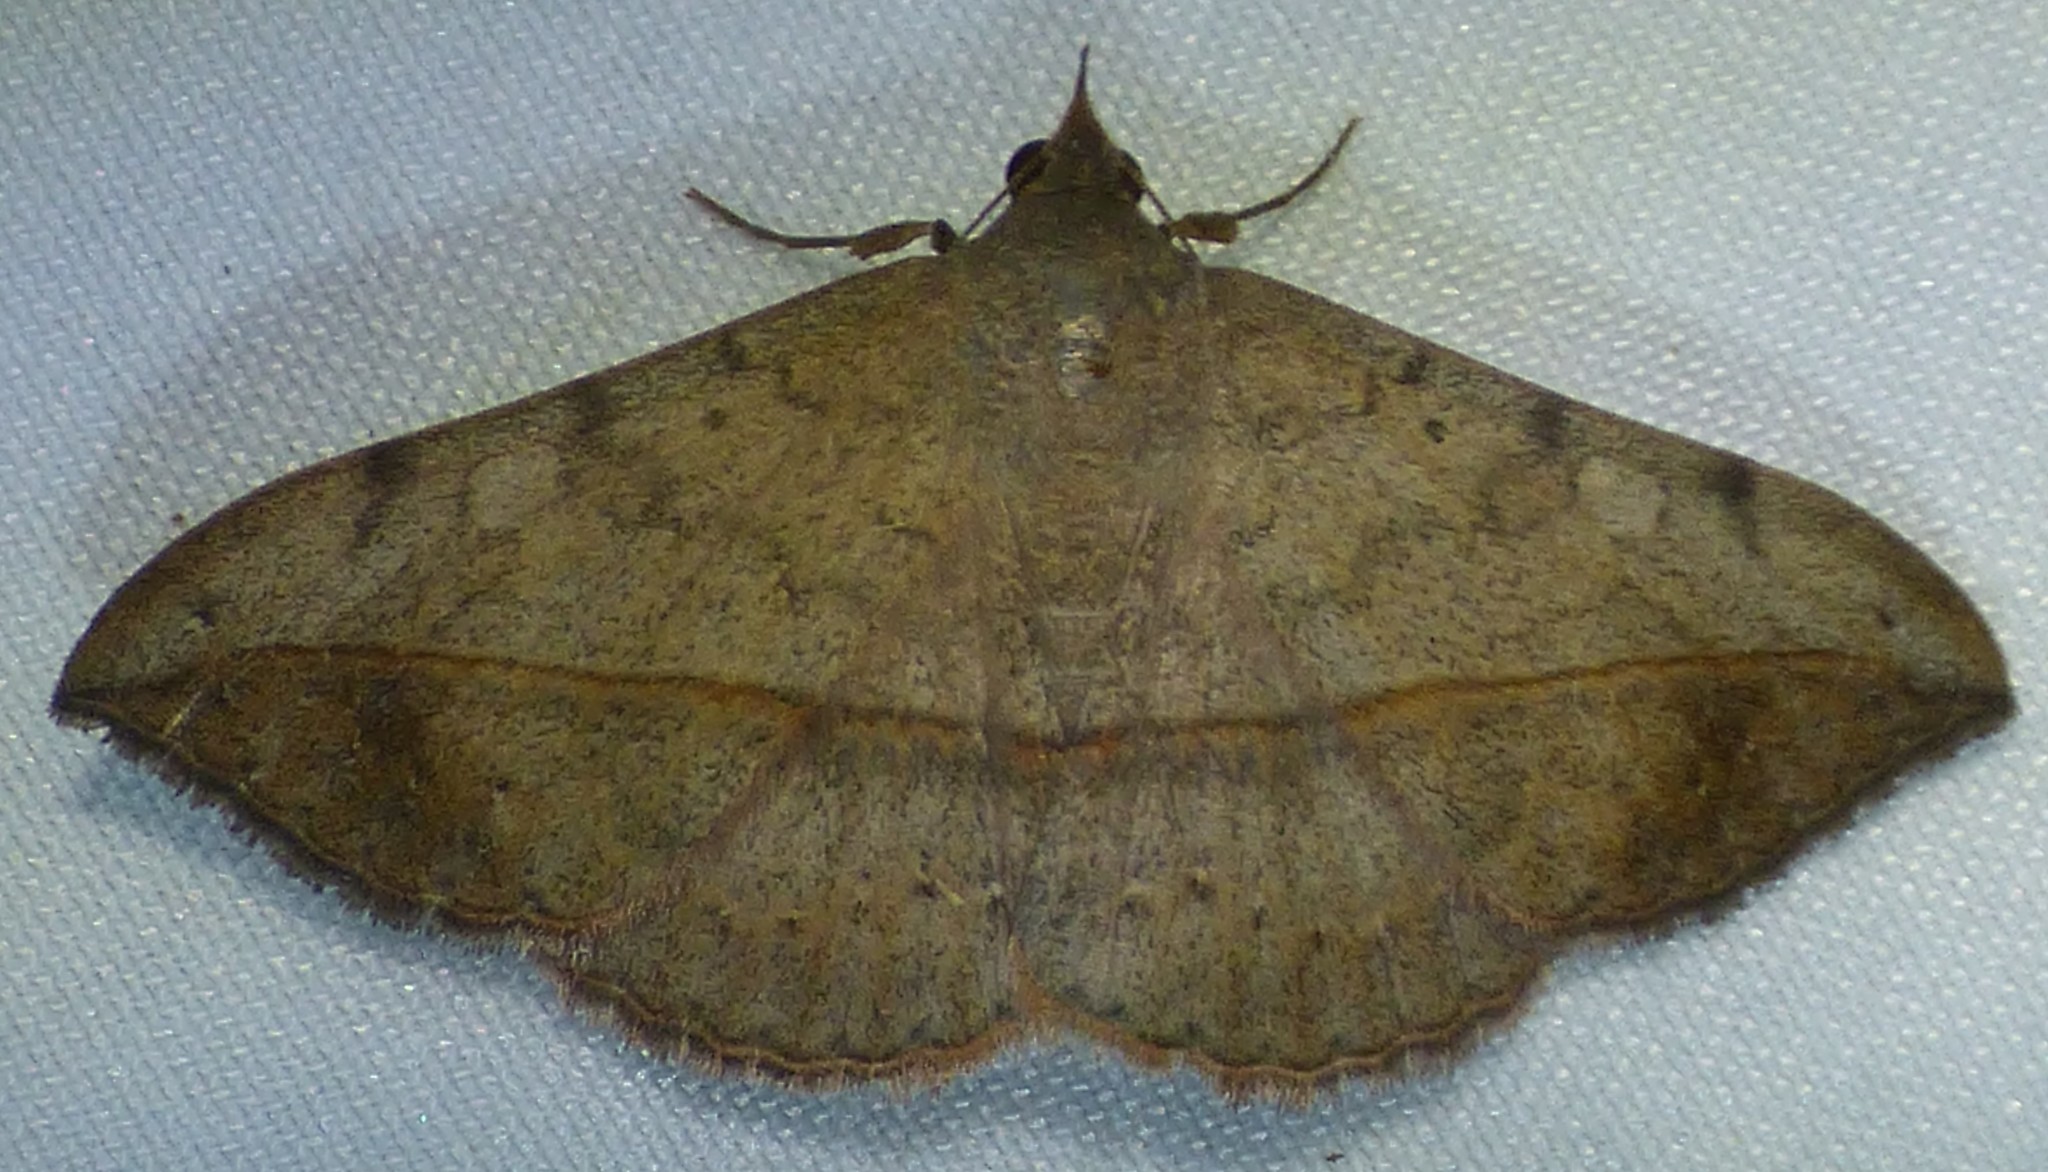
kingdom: Animalia
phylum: Arthropoda
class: Insecta
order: Lepidoptera
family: Erebidae
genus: Anticarsia
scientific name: Anticarsia gemmatalis
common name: Cutworm moth
